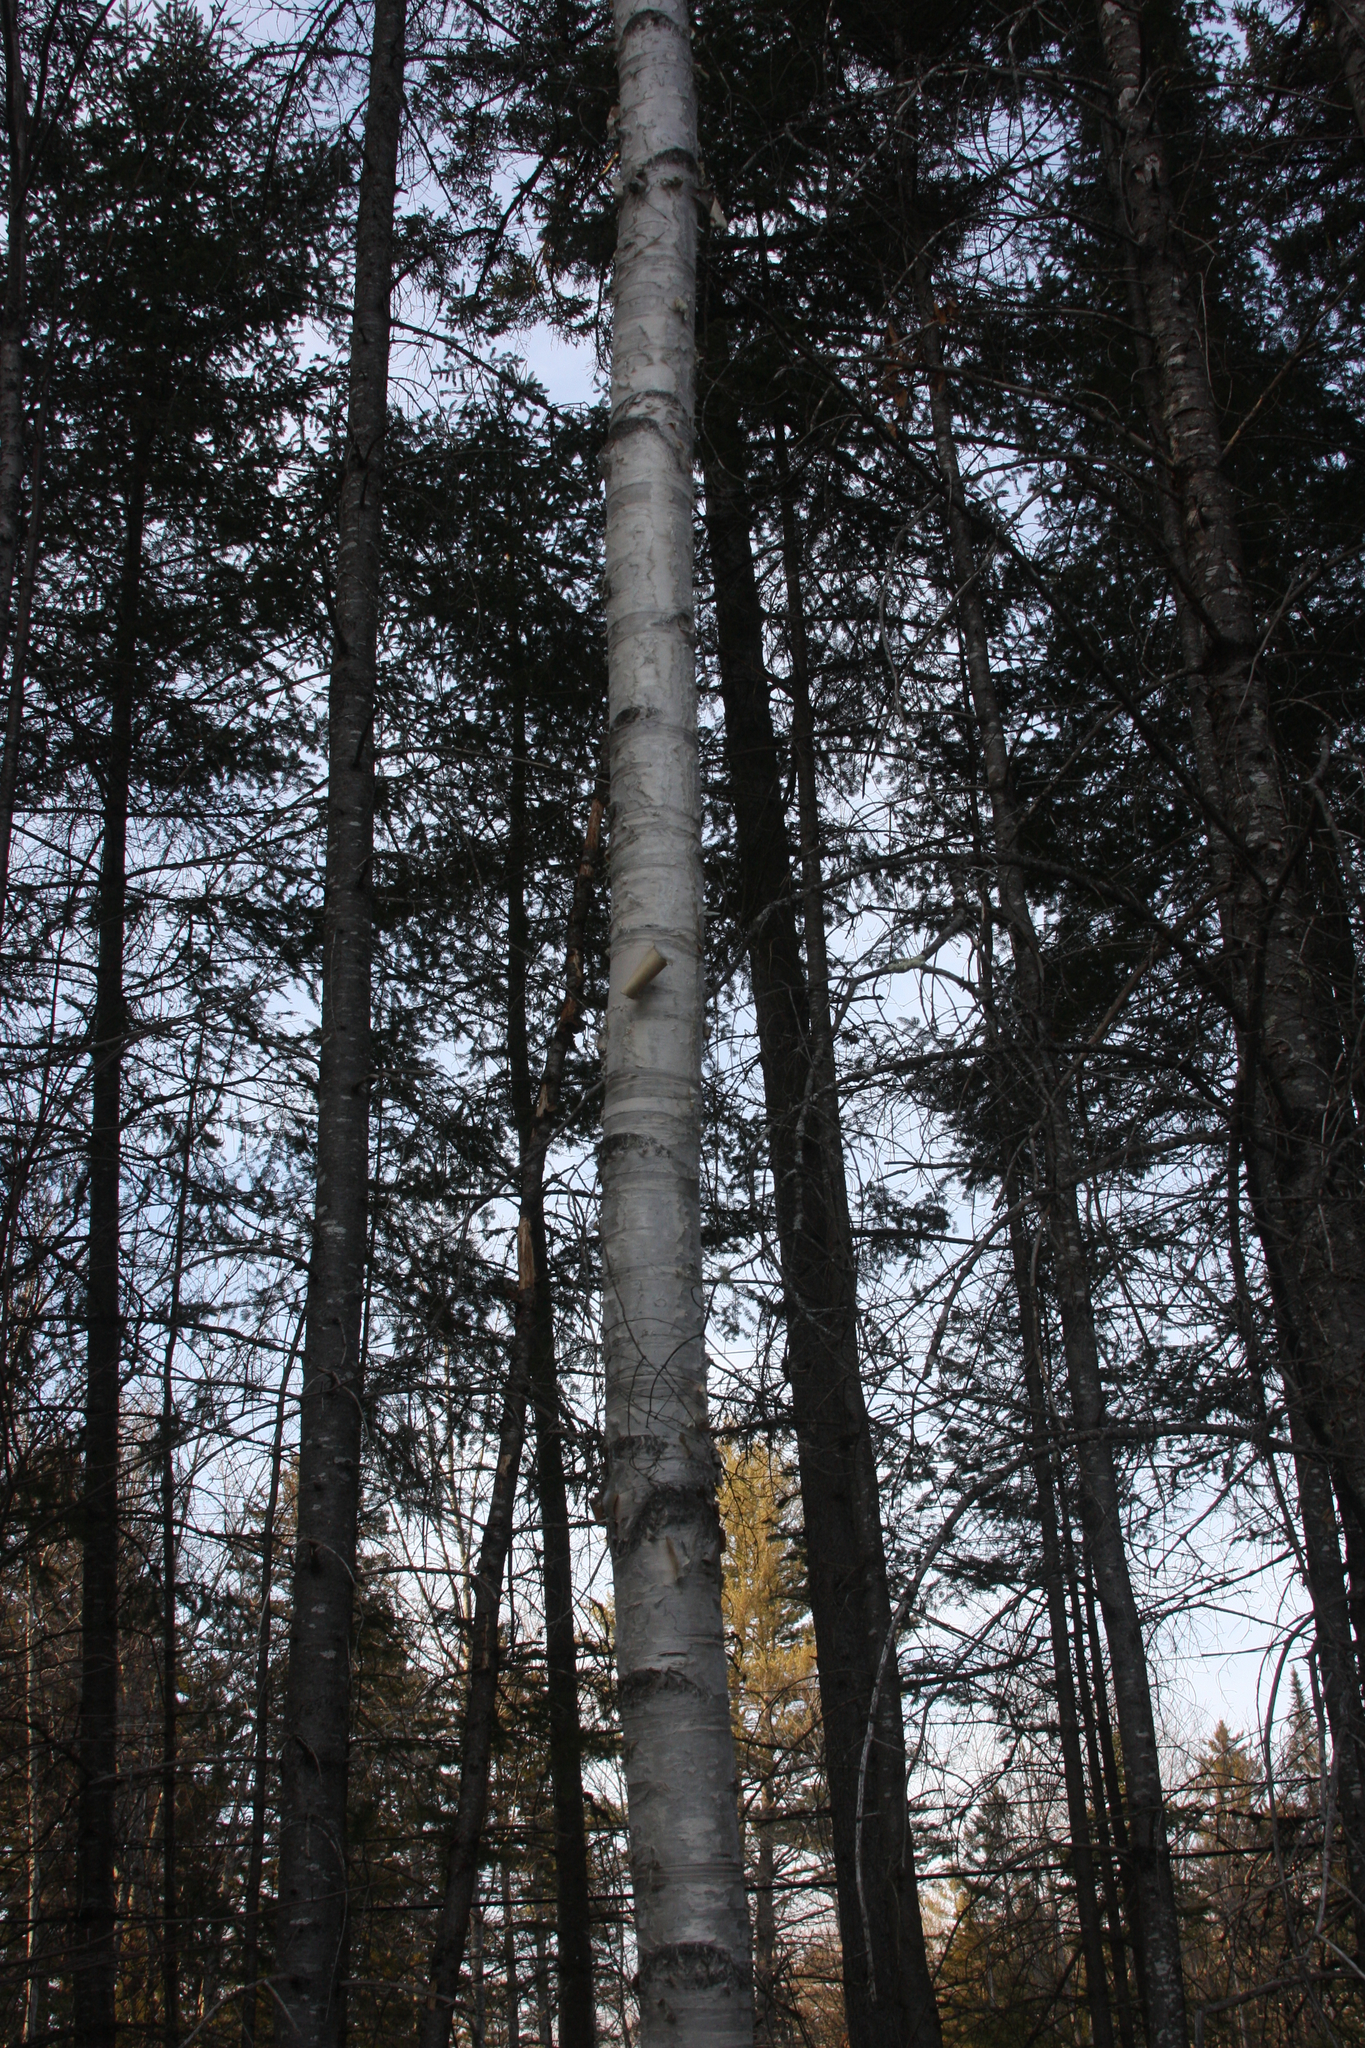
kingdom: Plantae
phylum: Tracheophyta
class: Magnoliopsida
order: Fagales
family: Betulaceae
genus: Betula
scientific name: Betula papyrifera
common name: Paper birch
